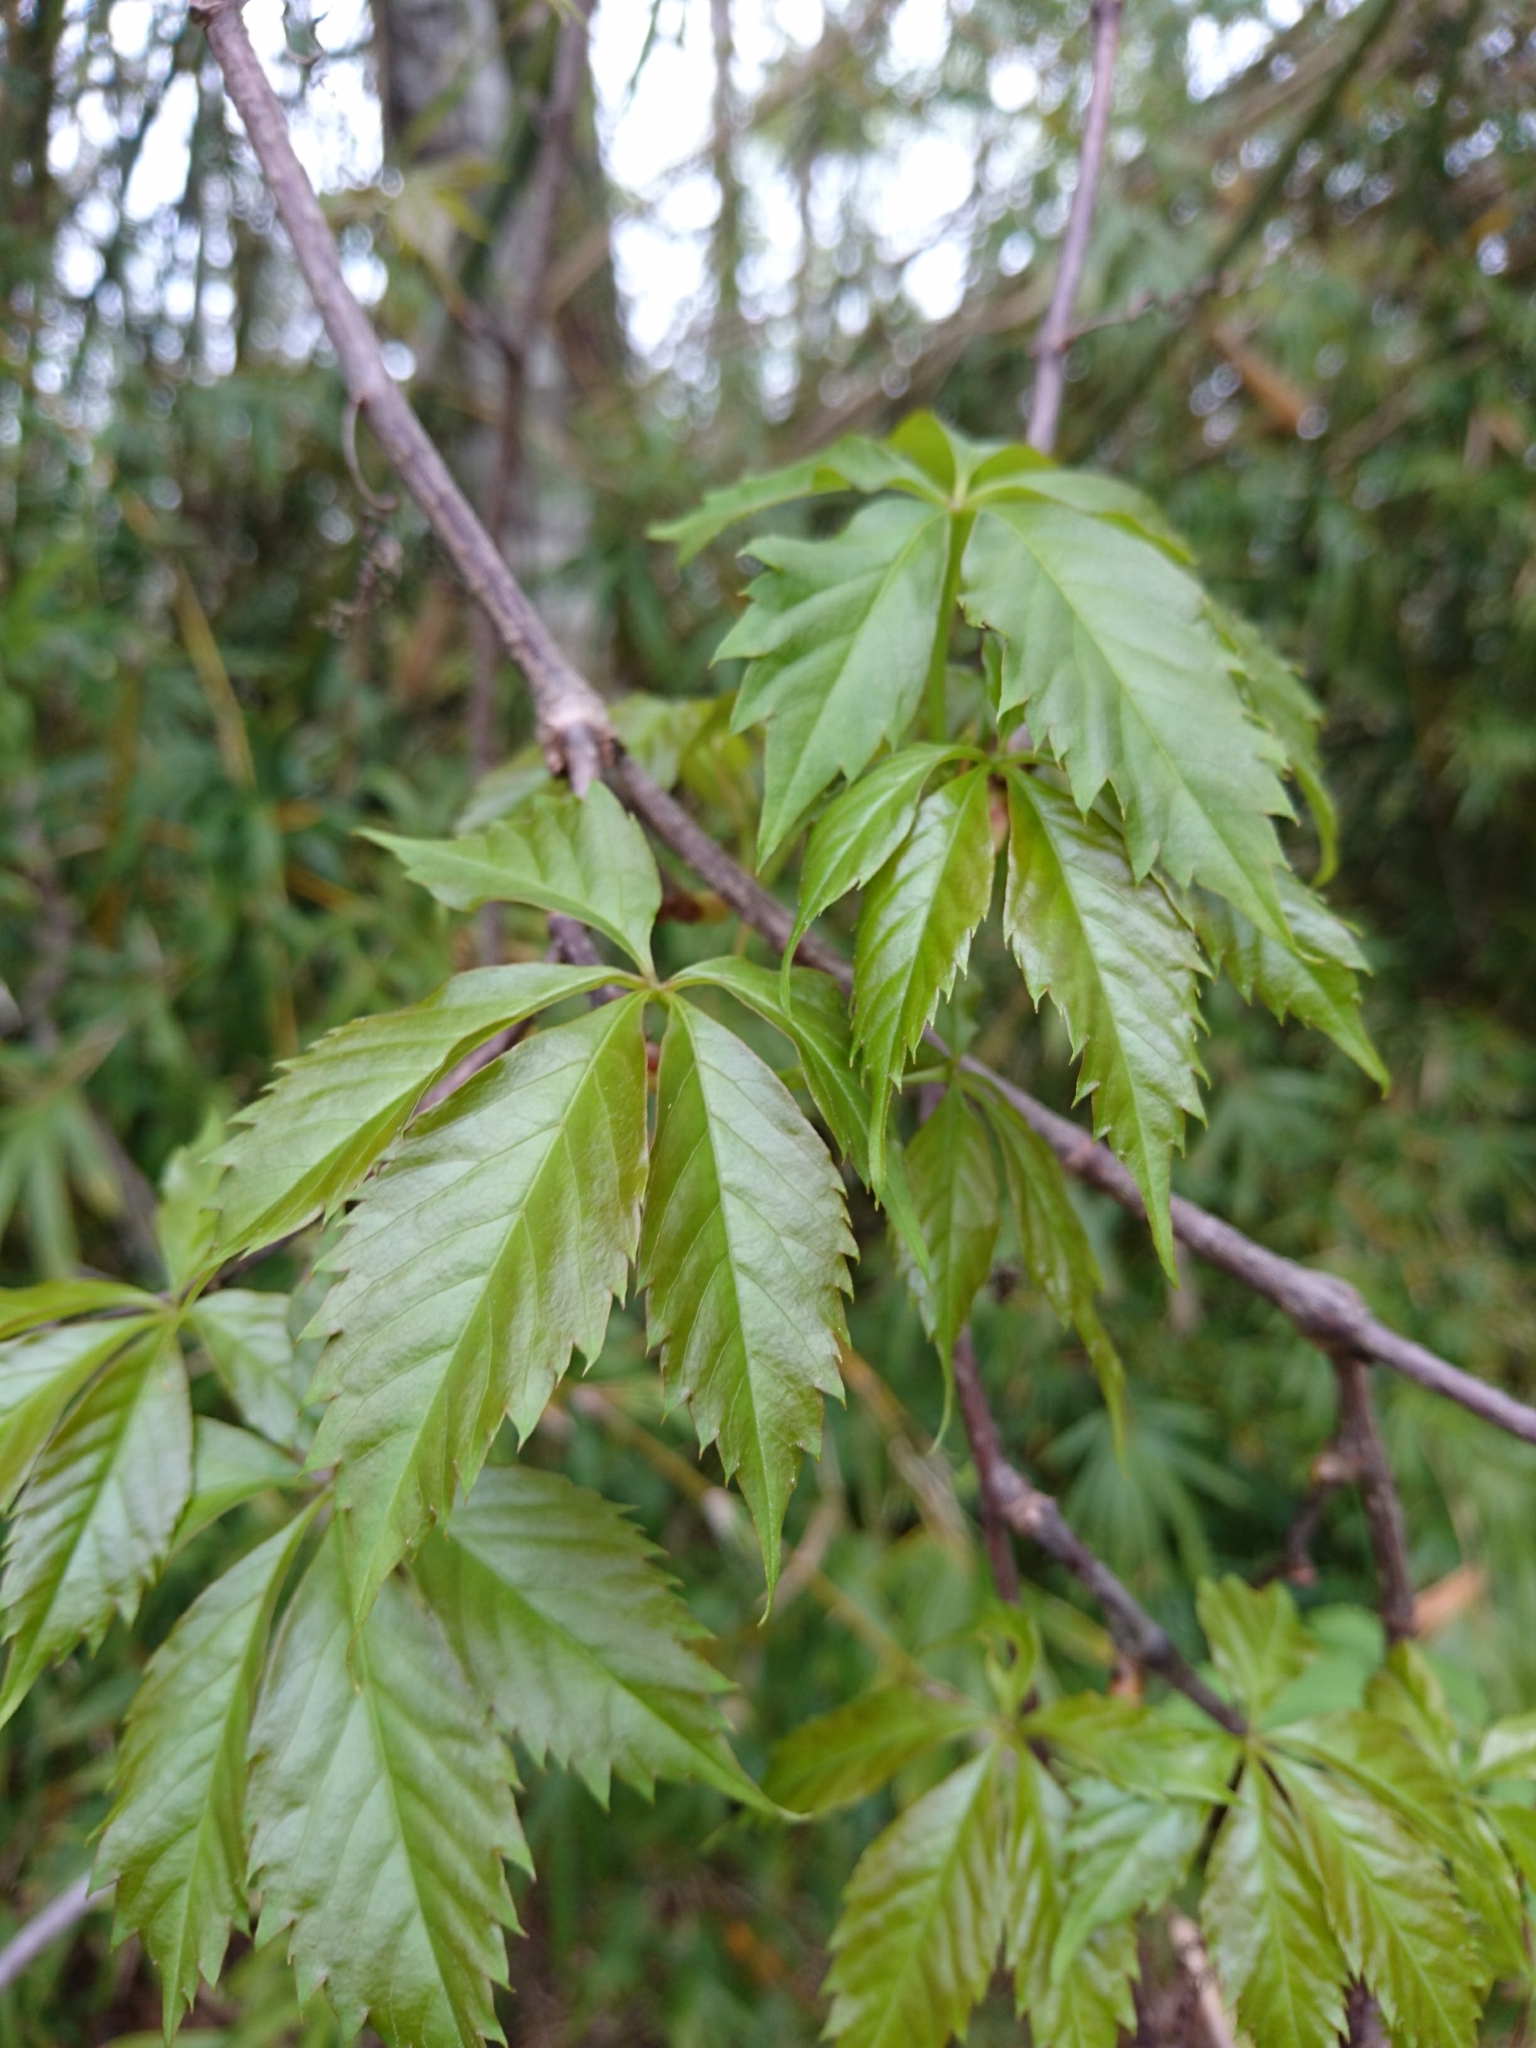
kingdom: Plantae
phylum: Tracheophyta
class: Magnoliopsida
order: Vitales
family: Vitaceae
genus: Parthenocissus
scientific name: Parthenocissus quinquefolia
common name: Virginia-creeper
